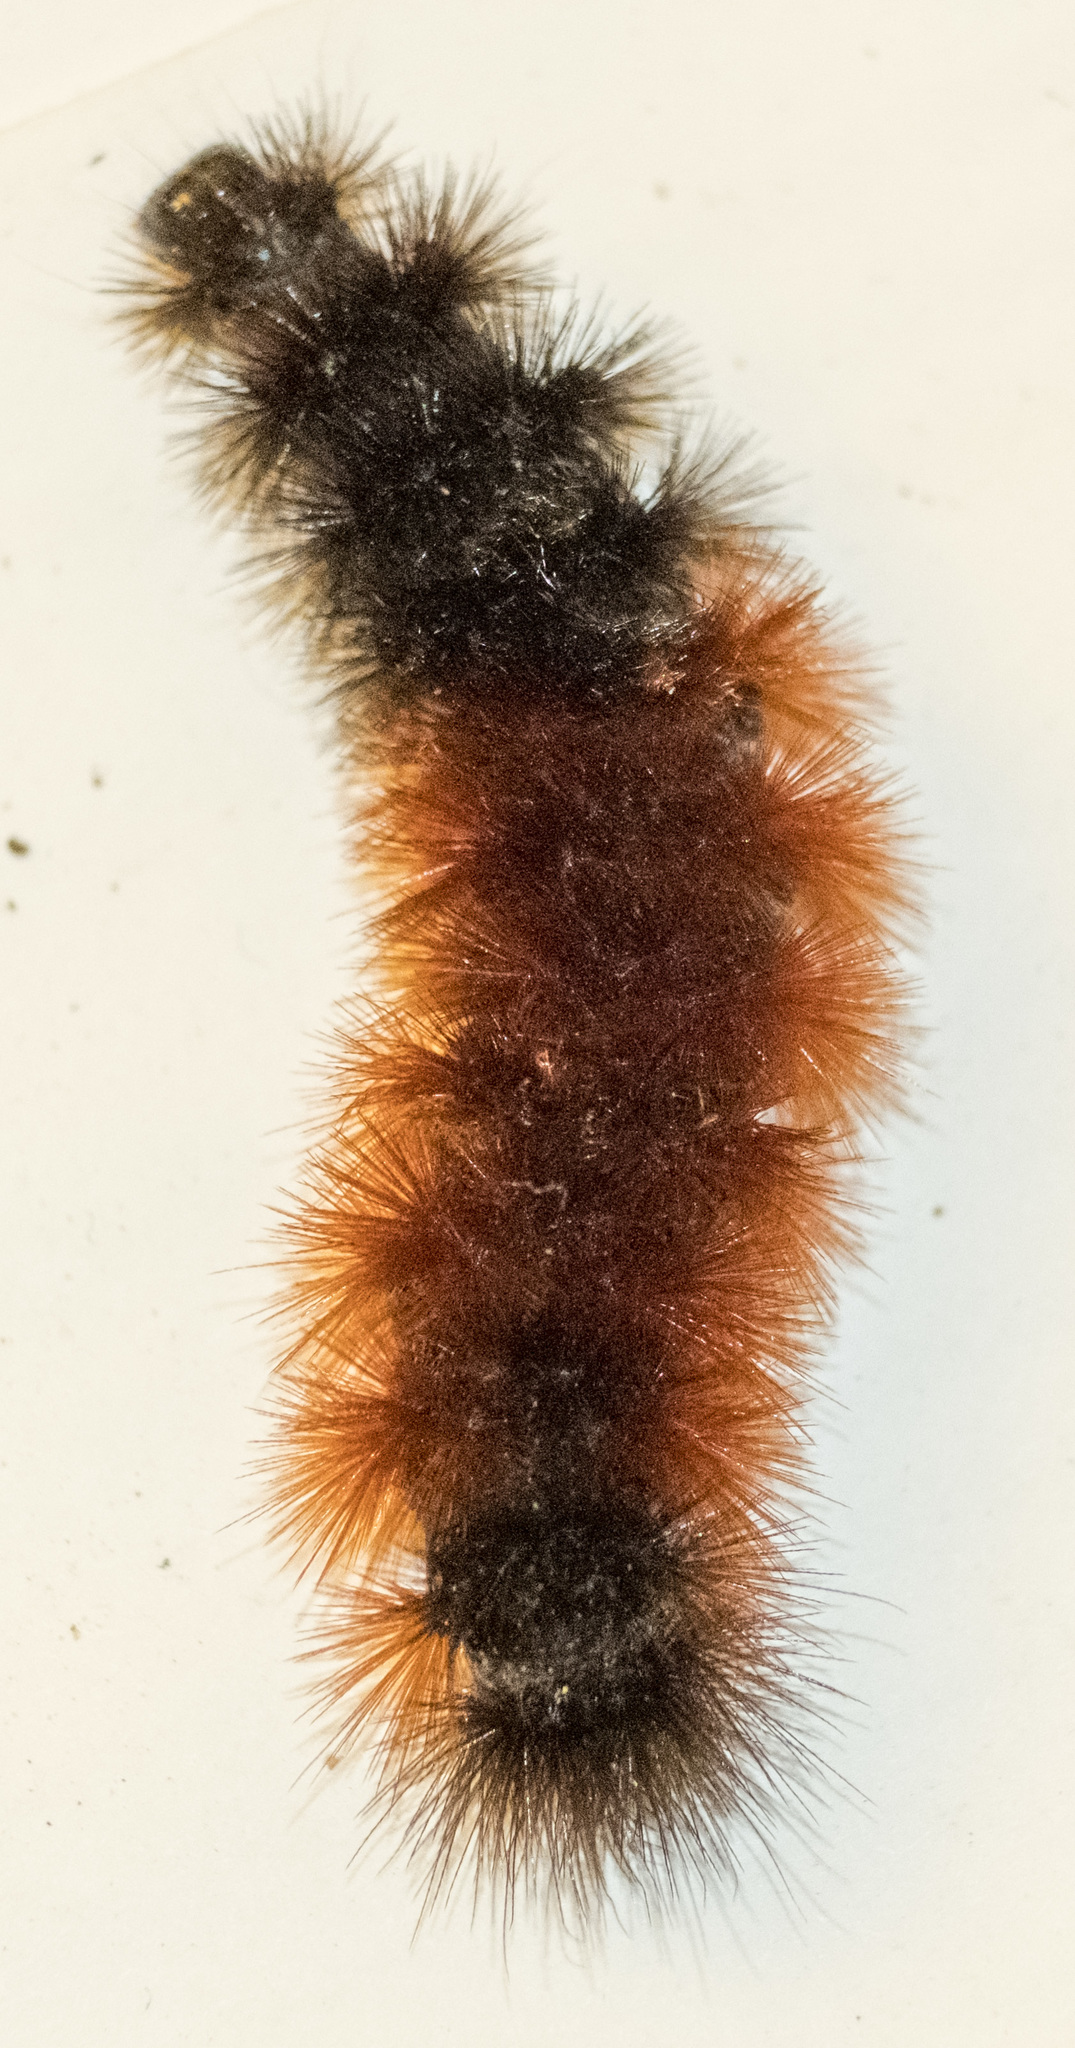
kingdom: Animalia
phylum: Arthropoda
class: Insecta
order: Lepidoptera
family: Erebidae
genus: Pyrrharctia
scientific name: Pyrrharctia isabella
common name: Isabella tiger moth
